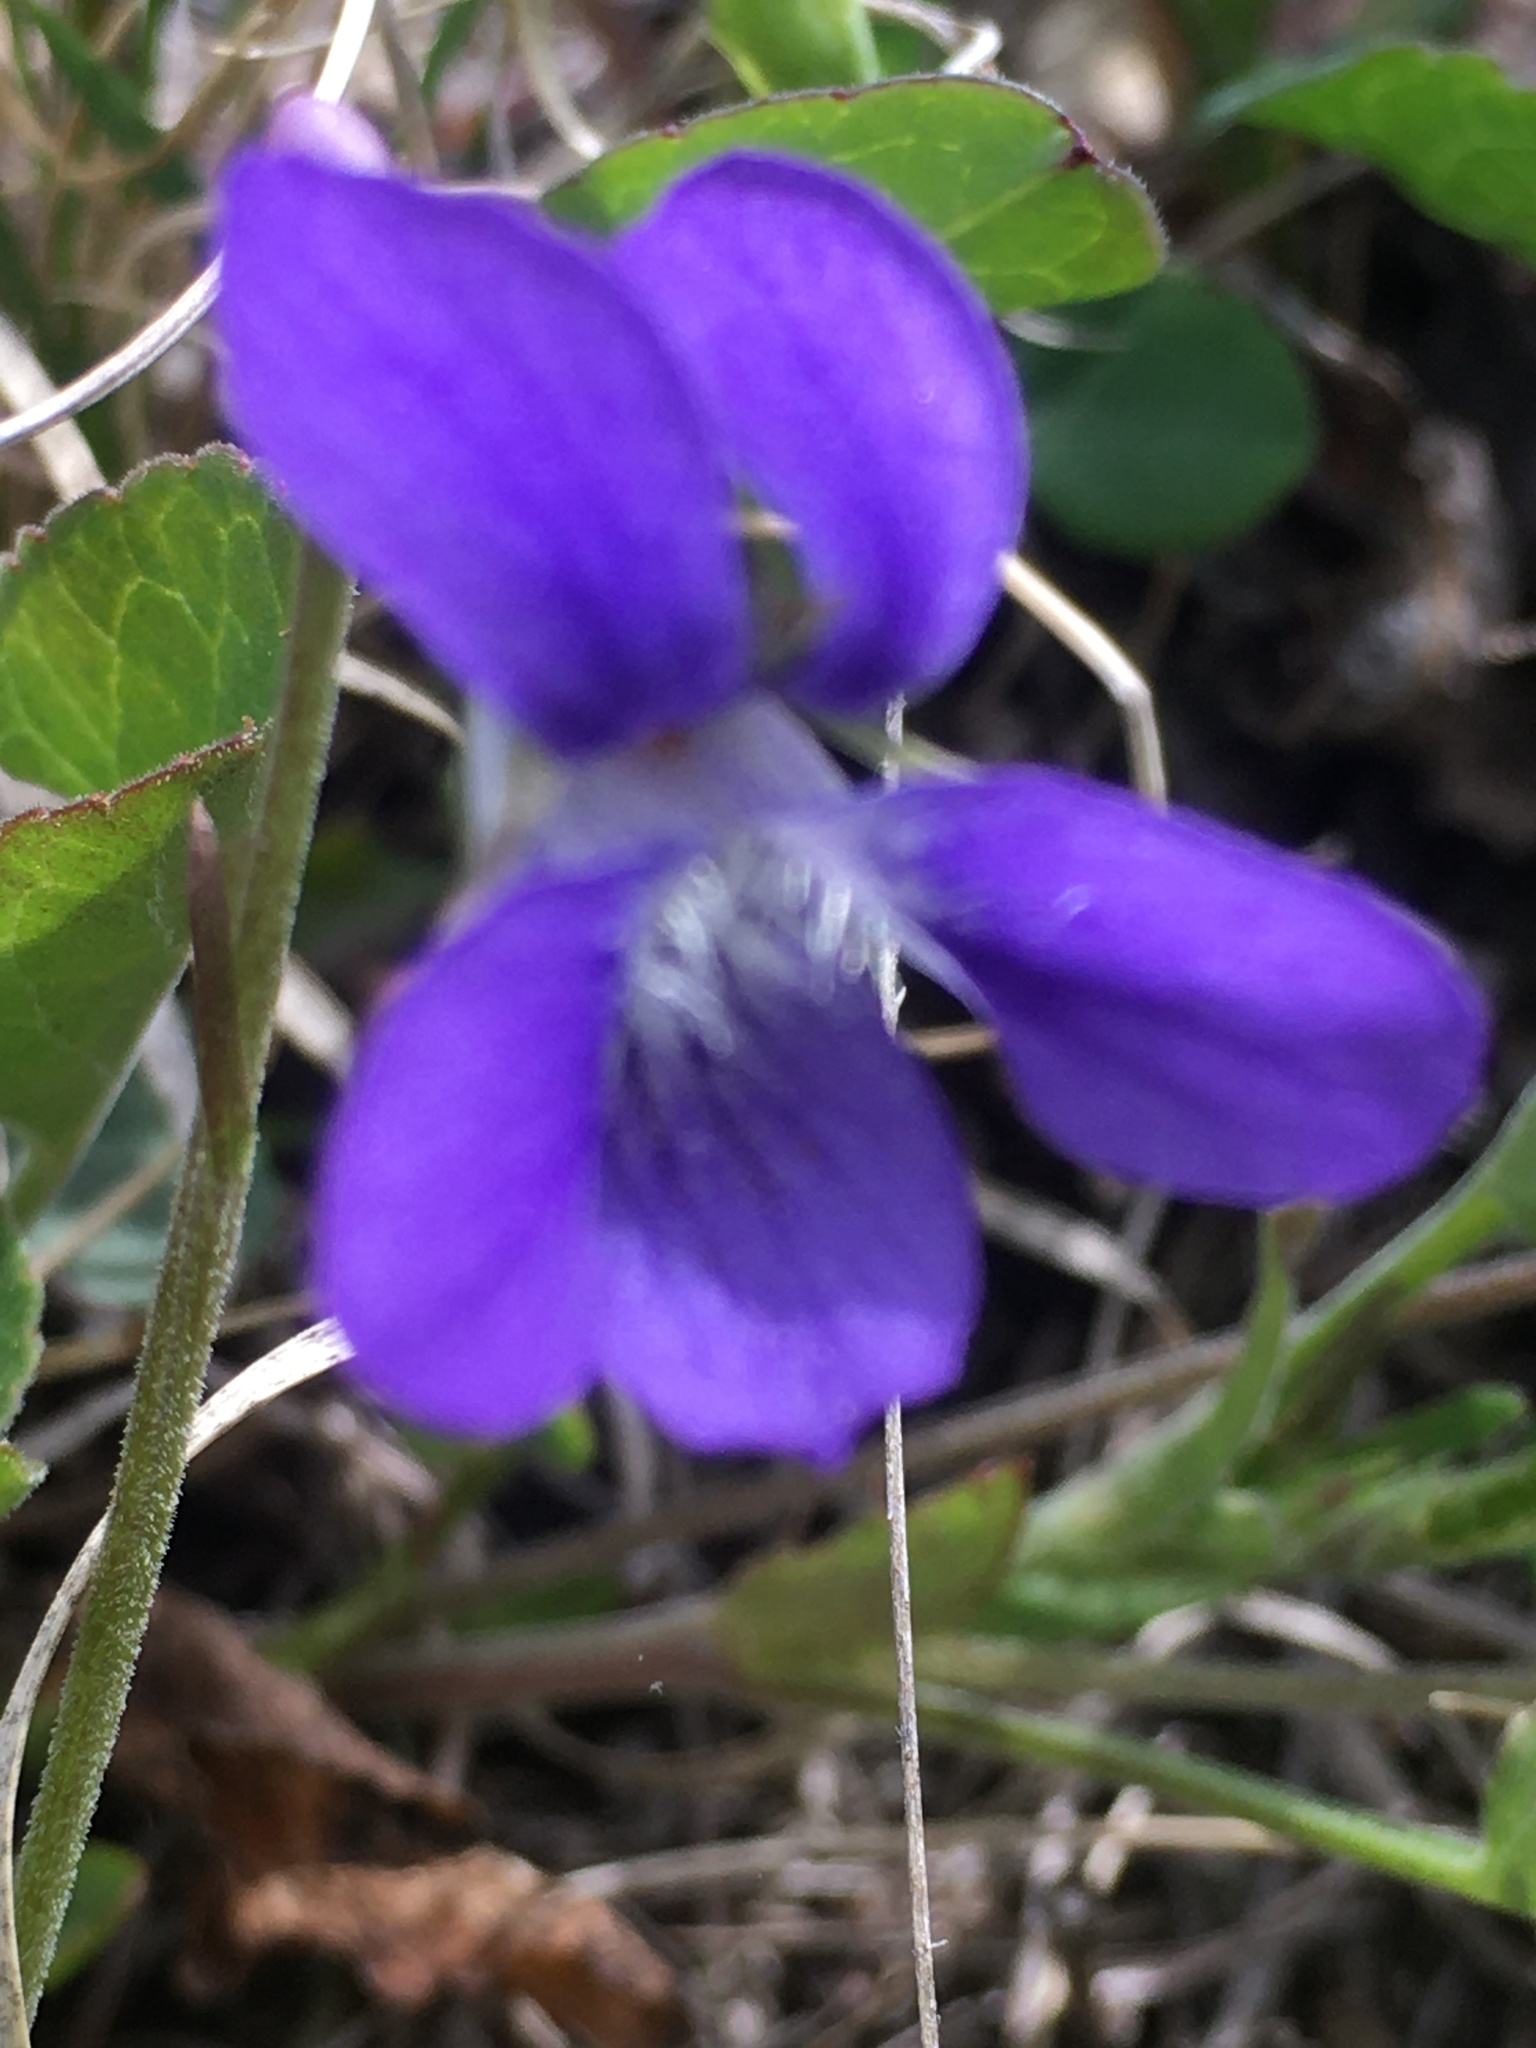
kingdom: Plantae
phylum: Tracheophyta
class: Magnoliopsida
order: Malpighiales
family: Violaceae
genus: Viola
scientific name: Viola adunca
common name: Sand violet
